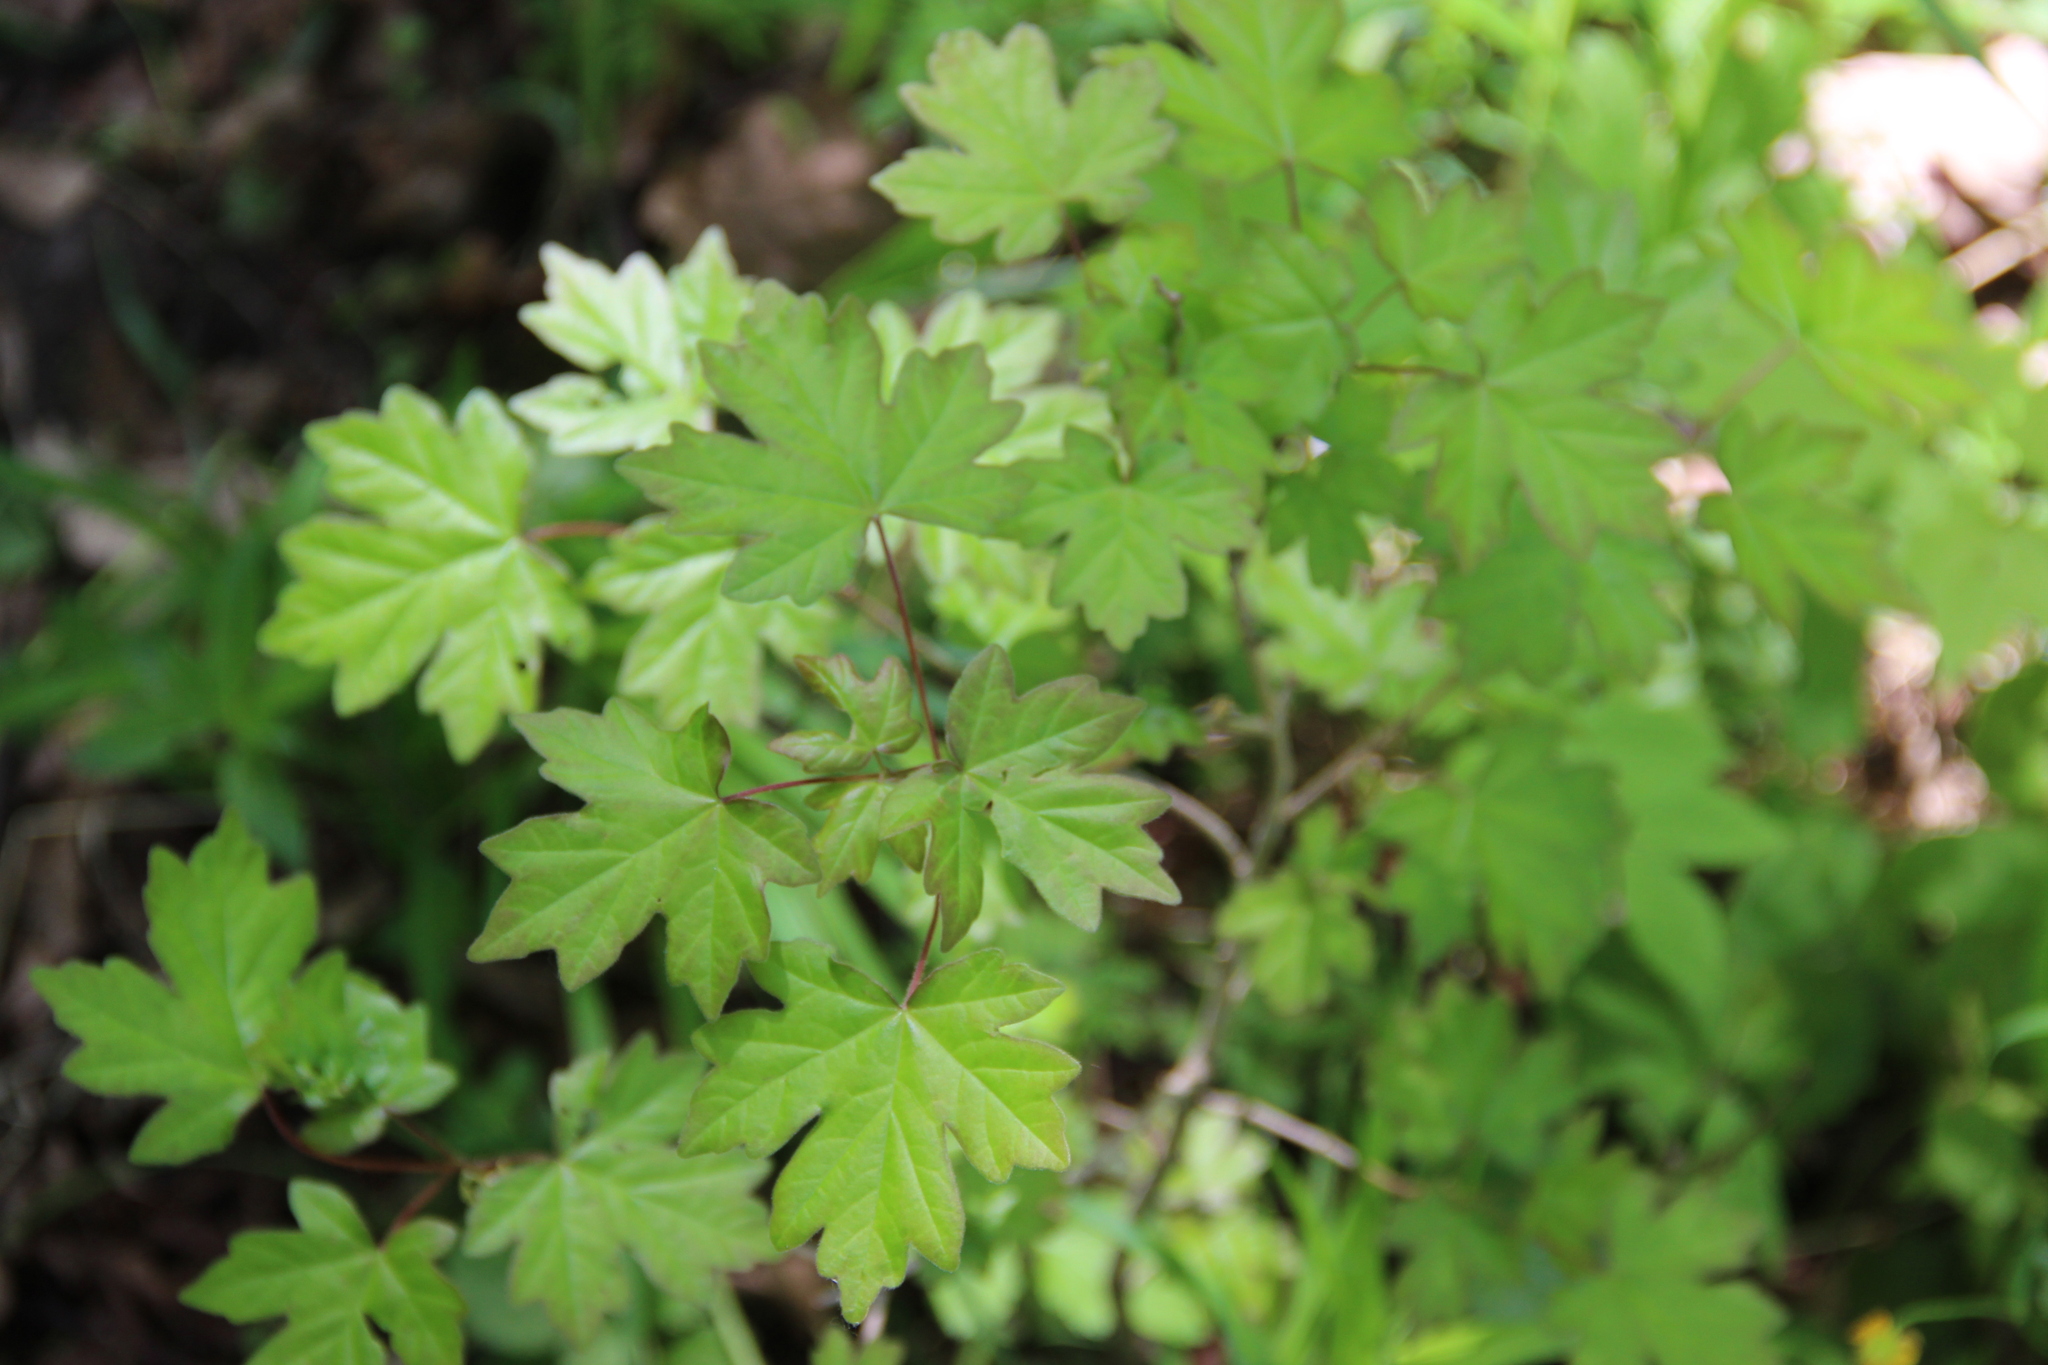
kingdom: Plantae
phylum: Tracheophyta
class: Magnoliopsida
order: Sapindales
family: Sapindaceae
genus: Acer
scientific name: Acer campestre
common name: Field maple
